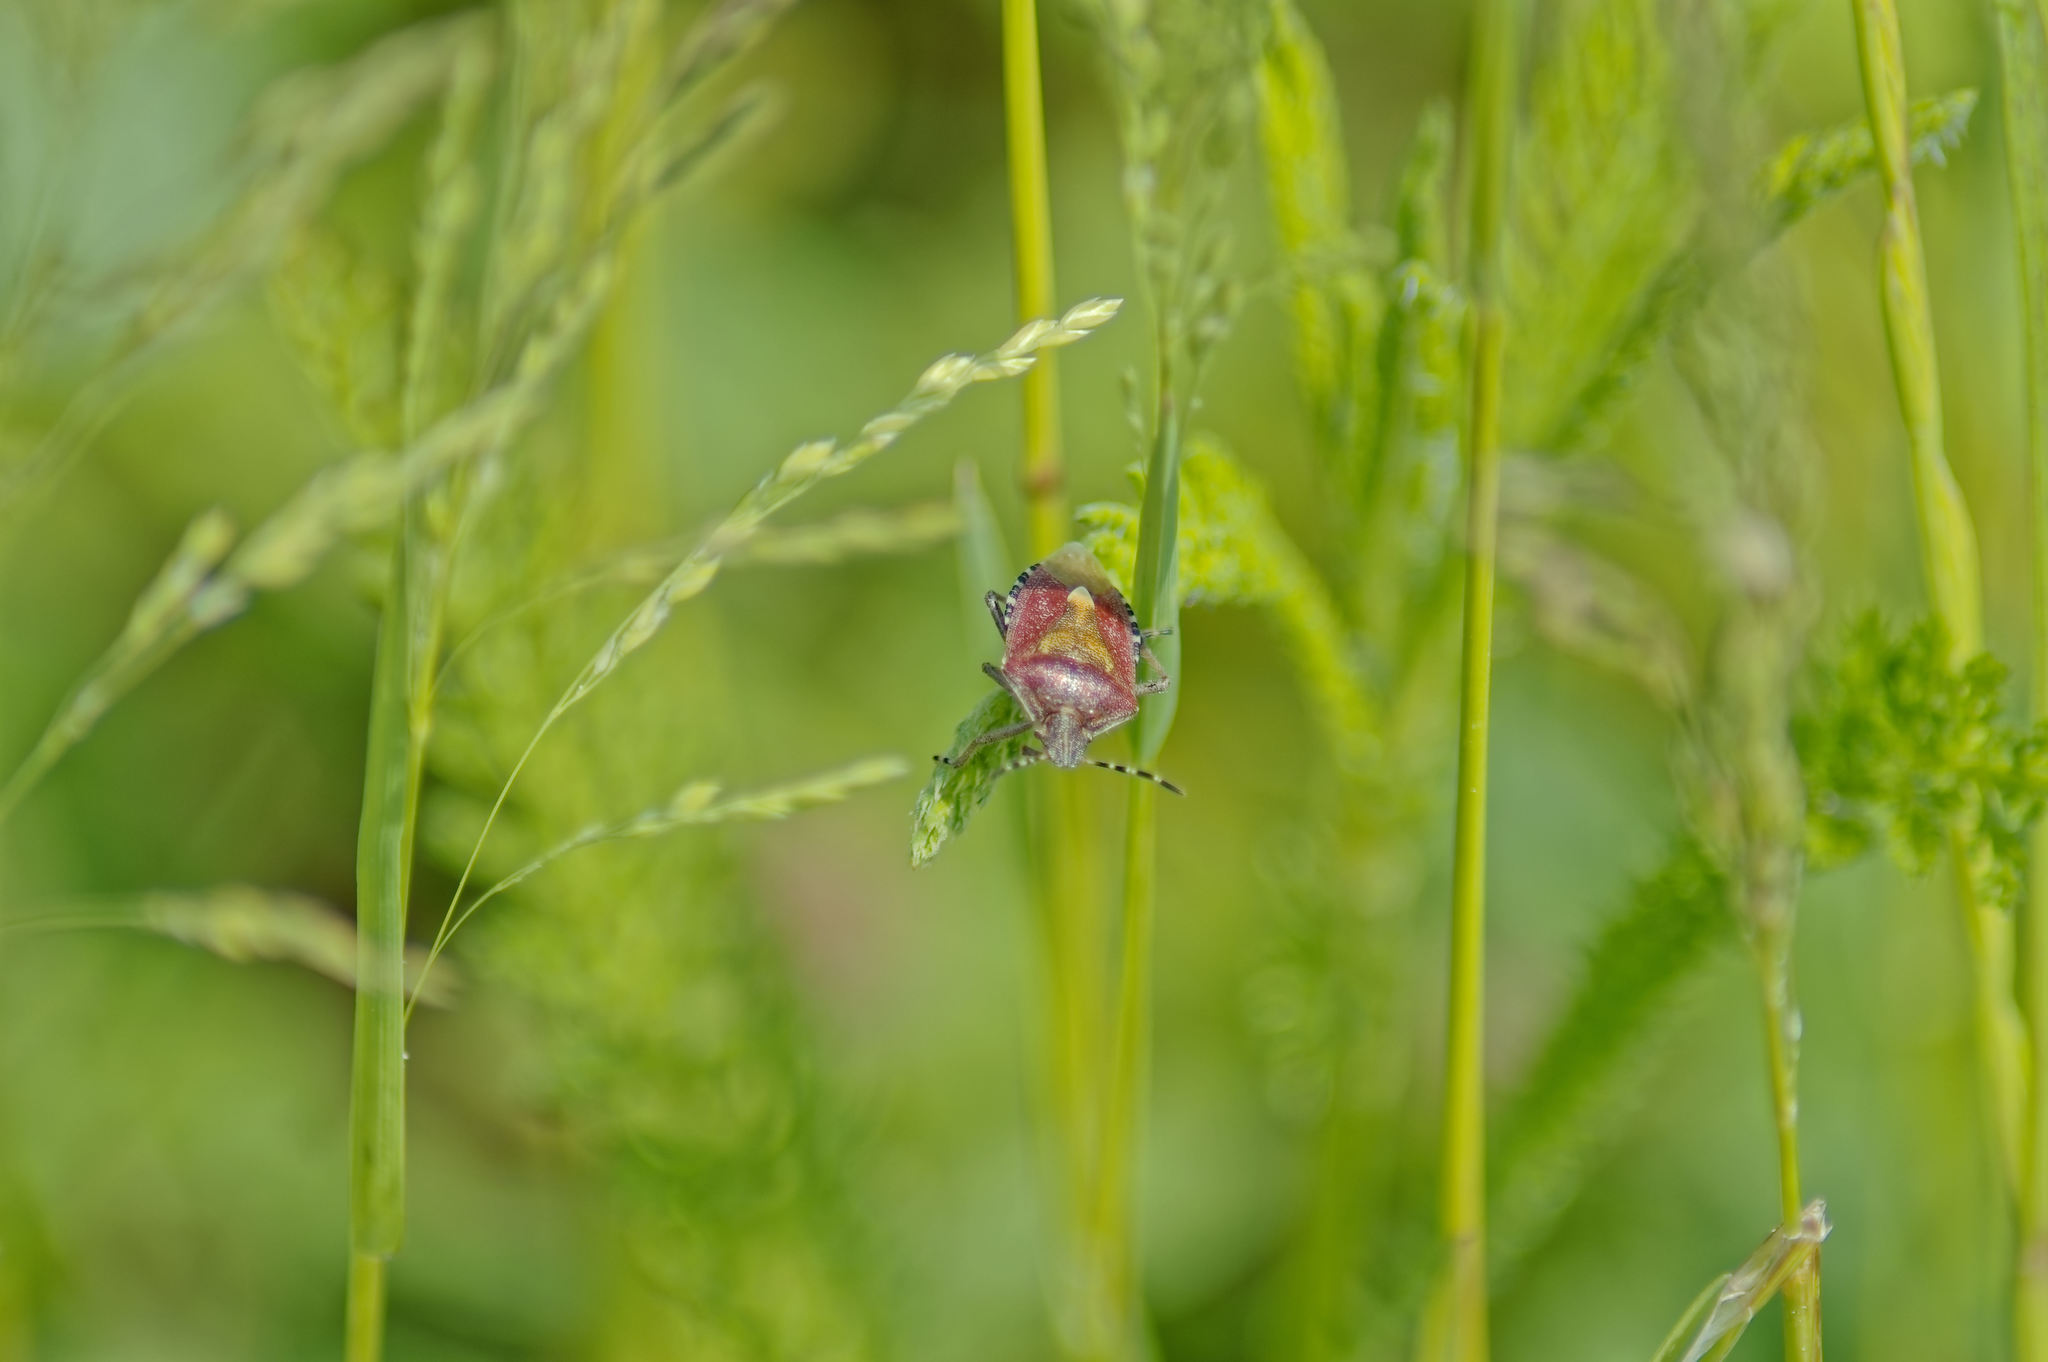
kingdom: Animalia
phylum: Arthropoda
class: Insecta
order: Hemiptera
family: Pentatomidae
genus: Dolycoris
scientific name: Dolycoris baccarum
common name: Sloe bug
